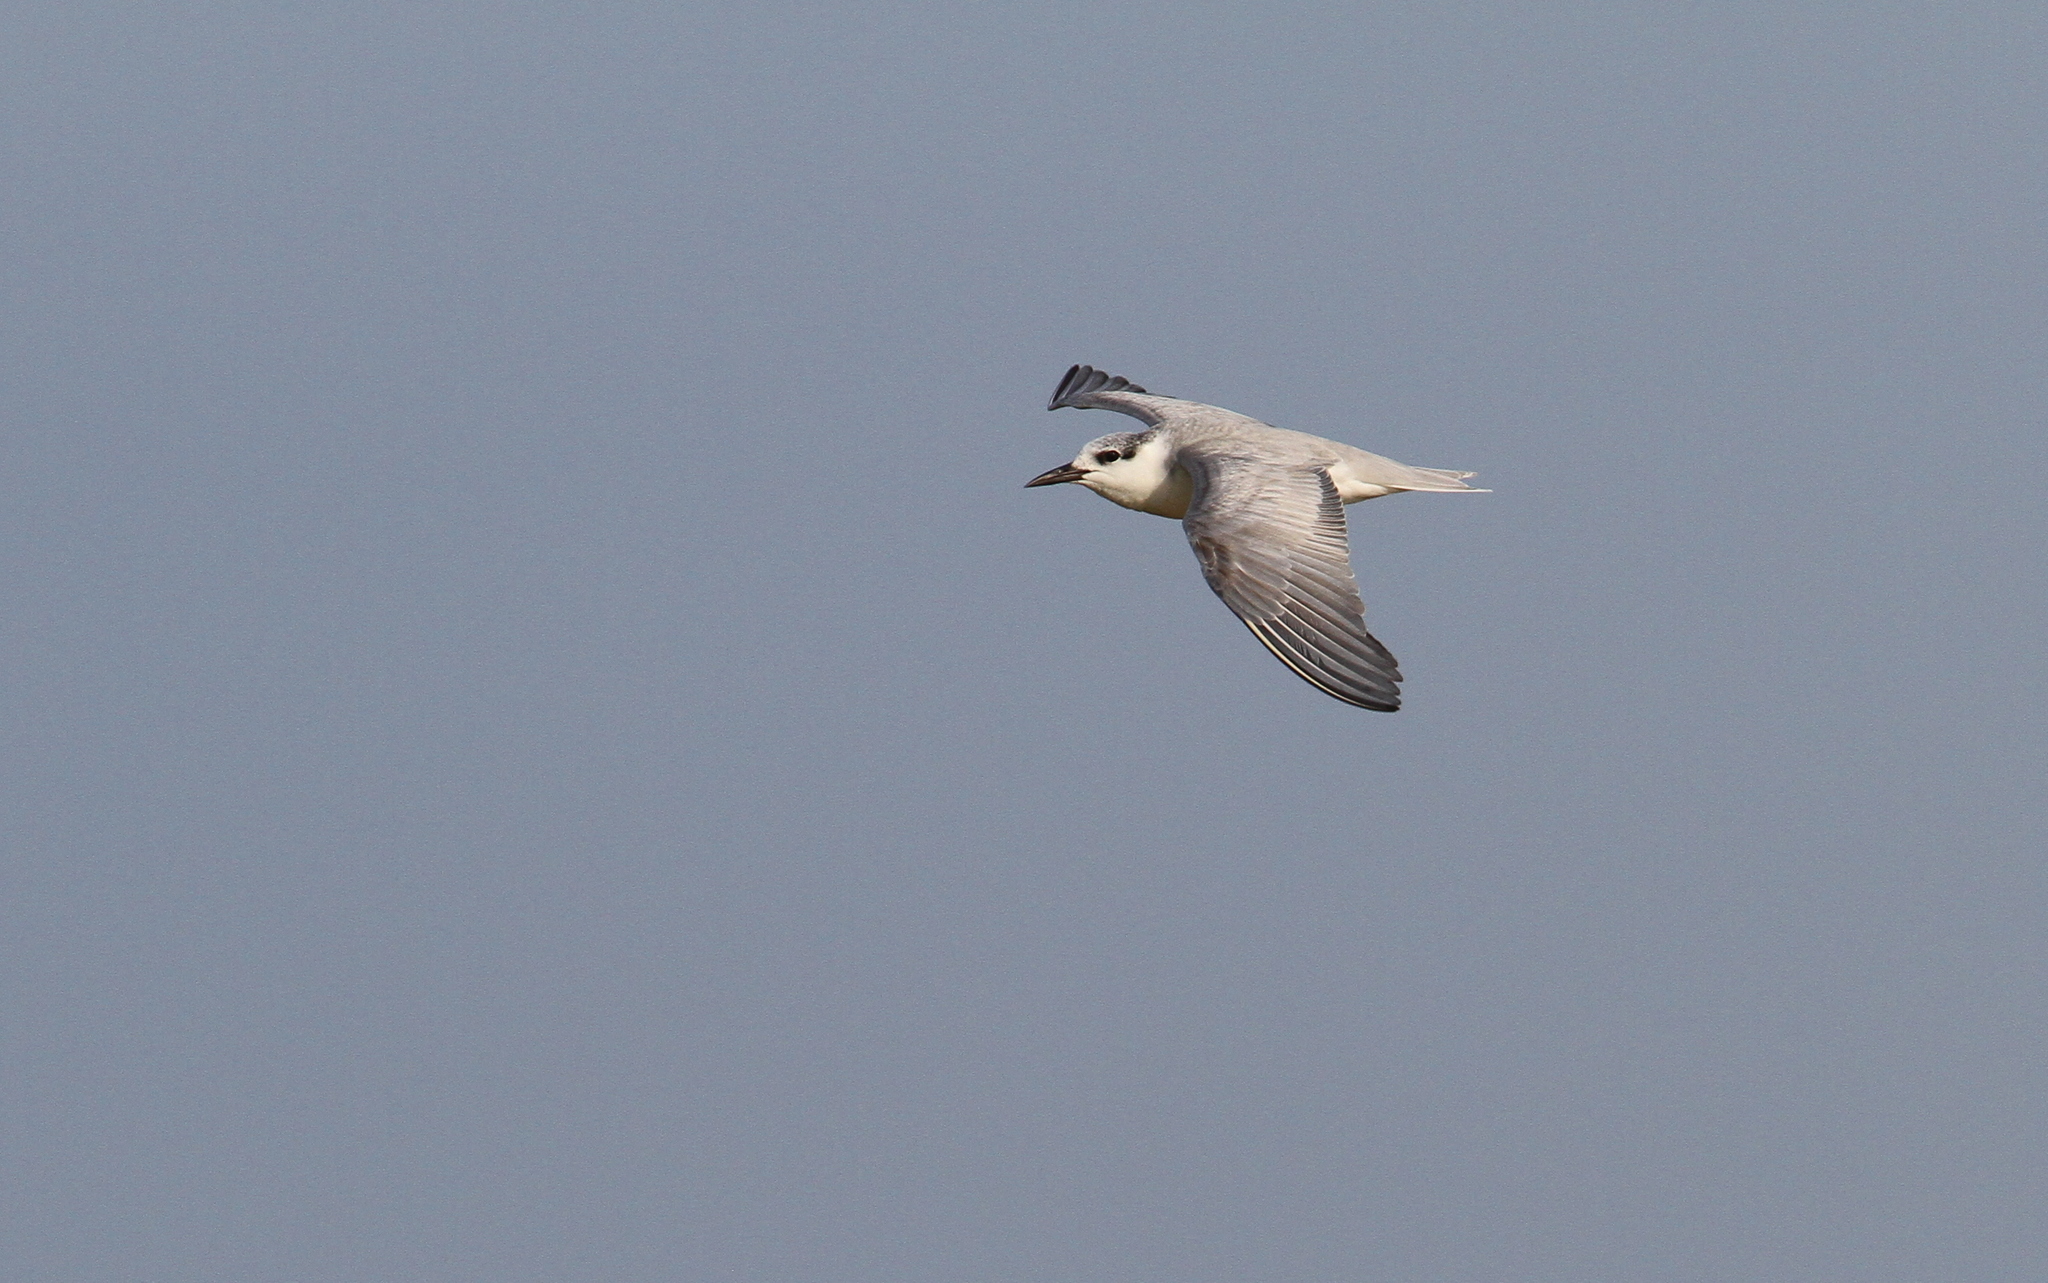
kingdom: Animalia
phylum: Chordata
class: Aves
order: Charadriiformes
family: Laridae
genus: Chlidonias
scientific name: Chlidonias hybrida
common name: Whiskered tern
